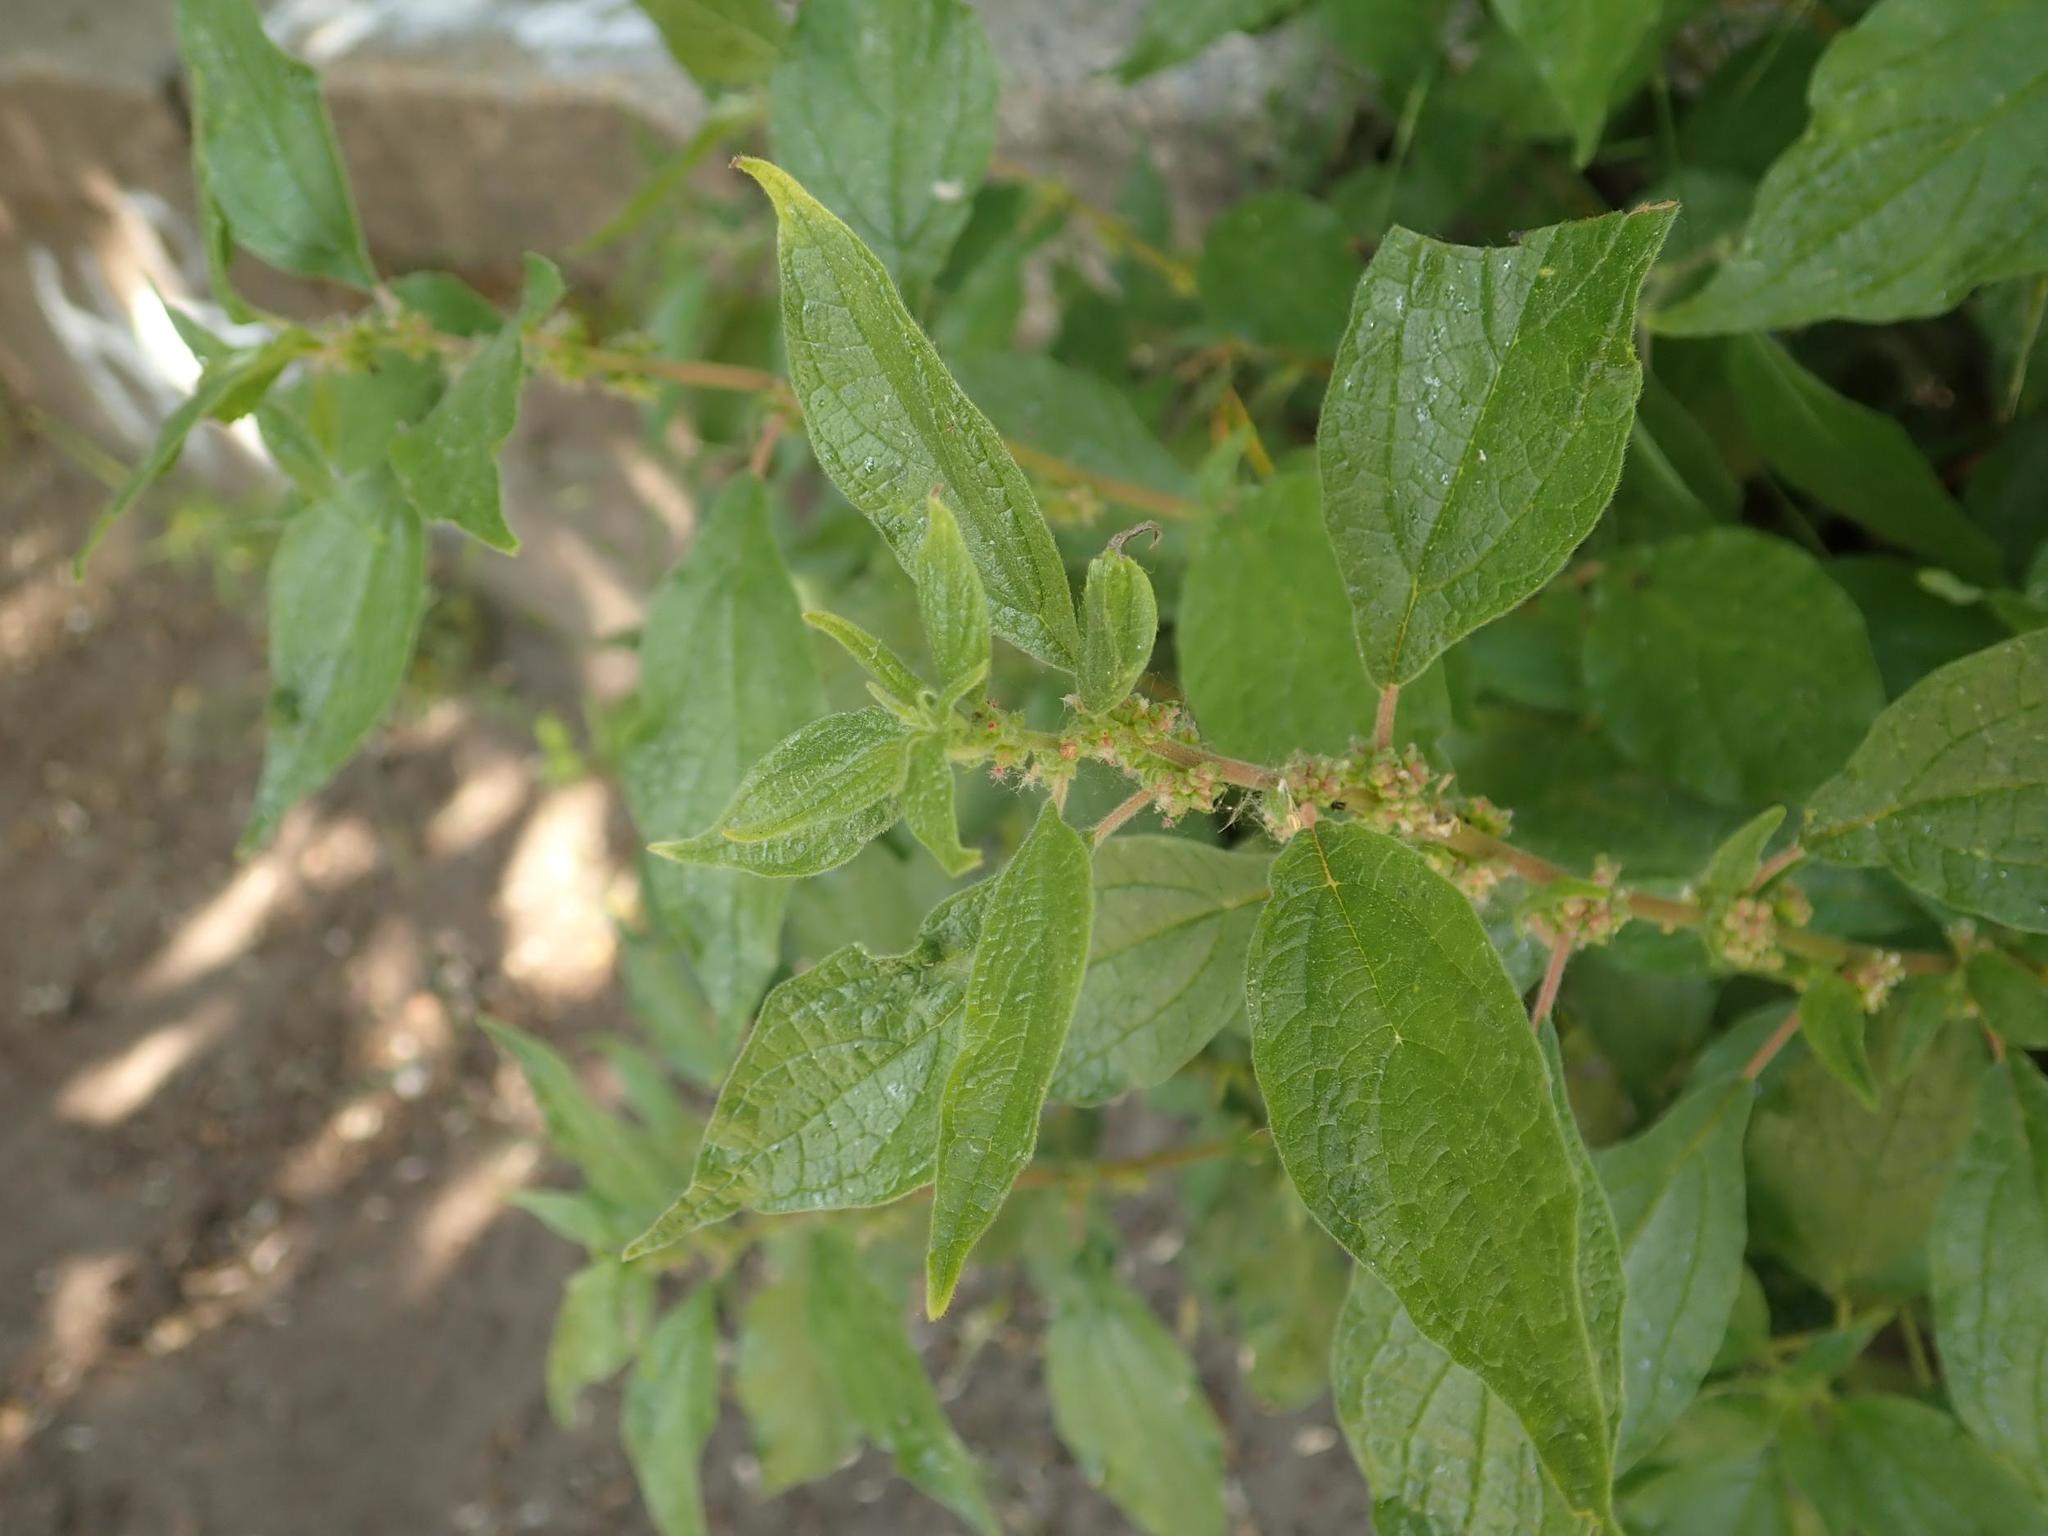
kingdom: Plantae
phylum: Tracheophyta
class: Magnoliopsida
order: Rosales
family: Urticaceae
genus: Parietaria
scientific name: Parietaria officinalis
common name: Eastern pellitory-of-the-wall
